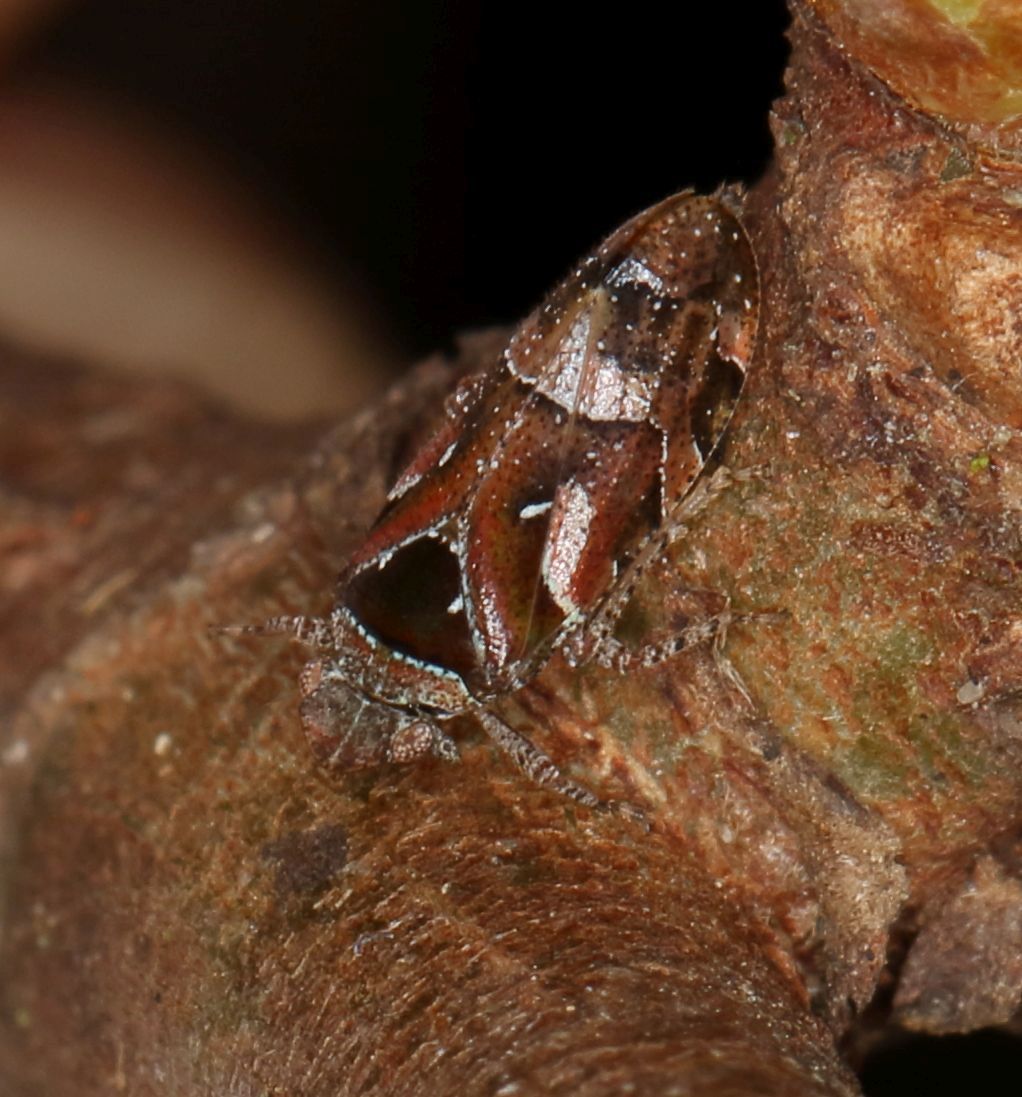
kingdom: Animalia
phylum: Arthropoda
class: Insecta
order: Hemiptera
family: Tettigometridae
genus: Nototettigometra
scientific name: Nototettigometra patruelis
